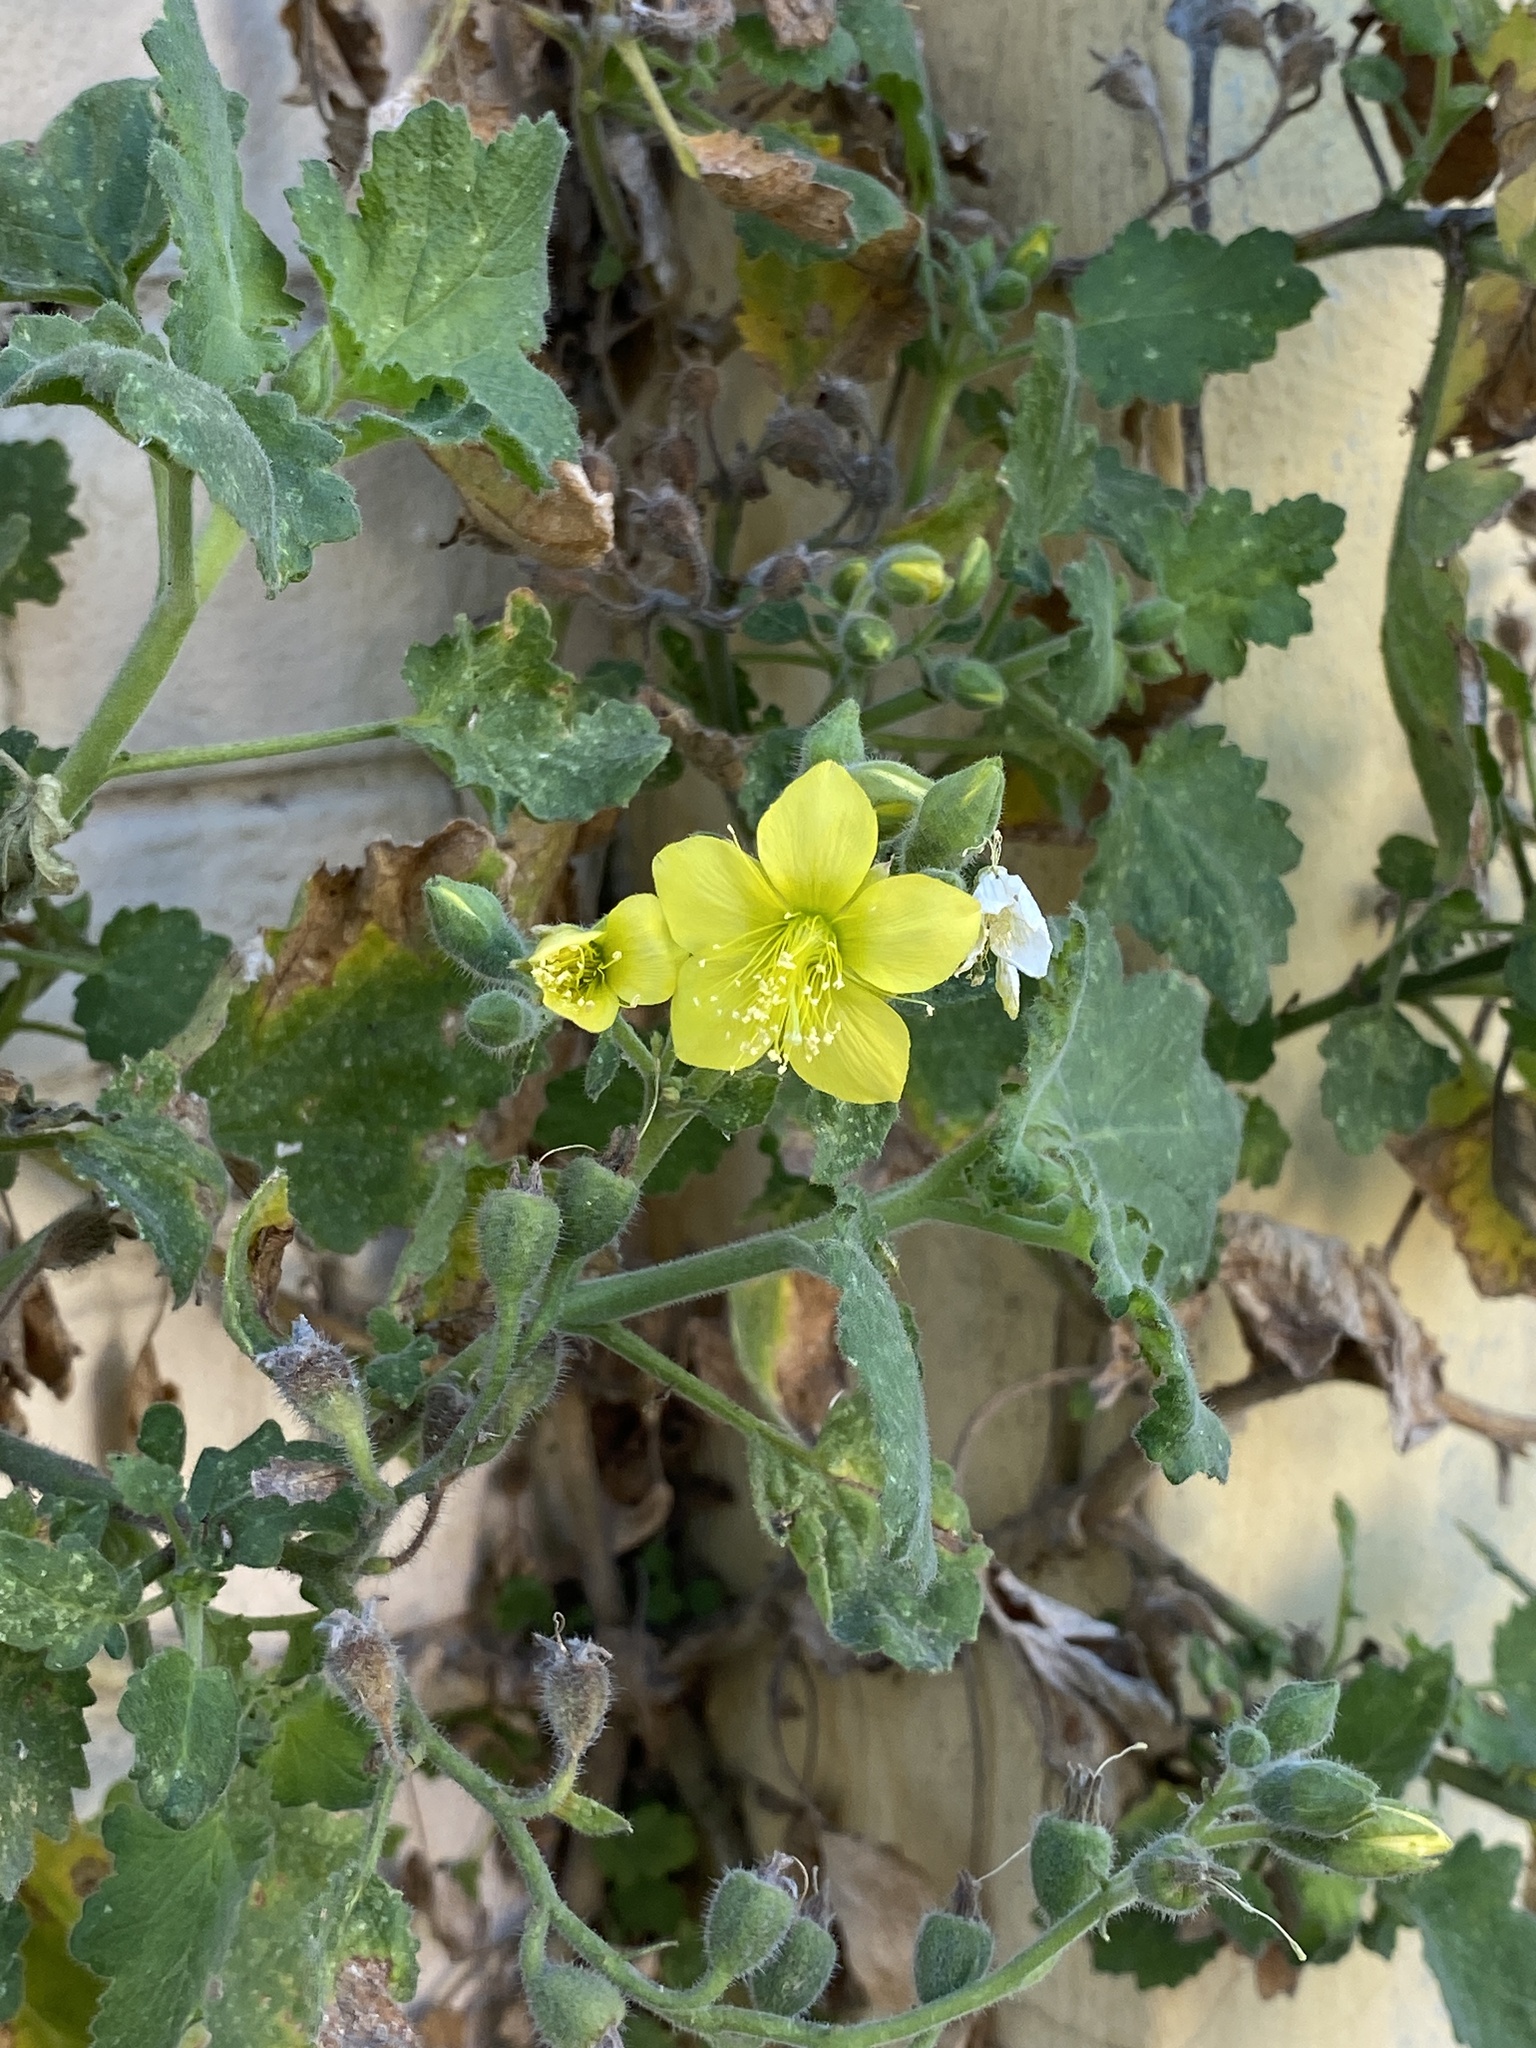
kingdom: Plantae
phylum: Tracheophyta
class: Magnoliopsida
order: Cornales
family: Loasaceae
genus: Eucnide
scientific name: Eucnide lobata
